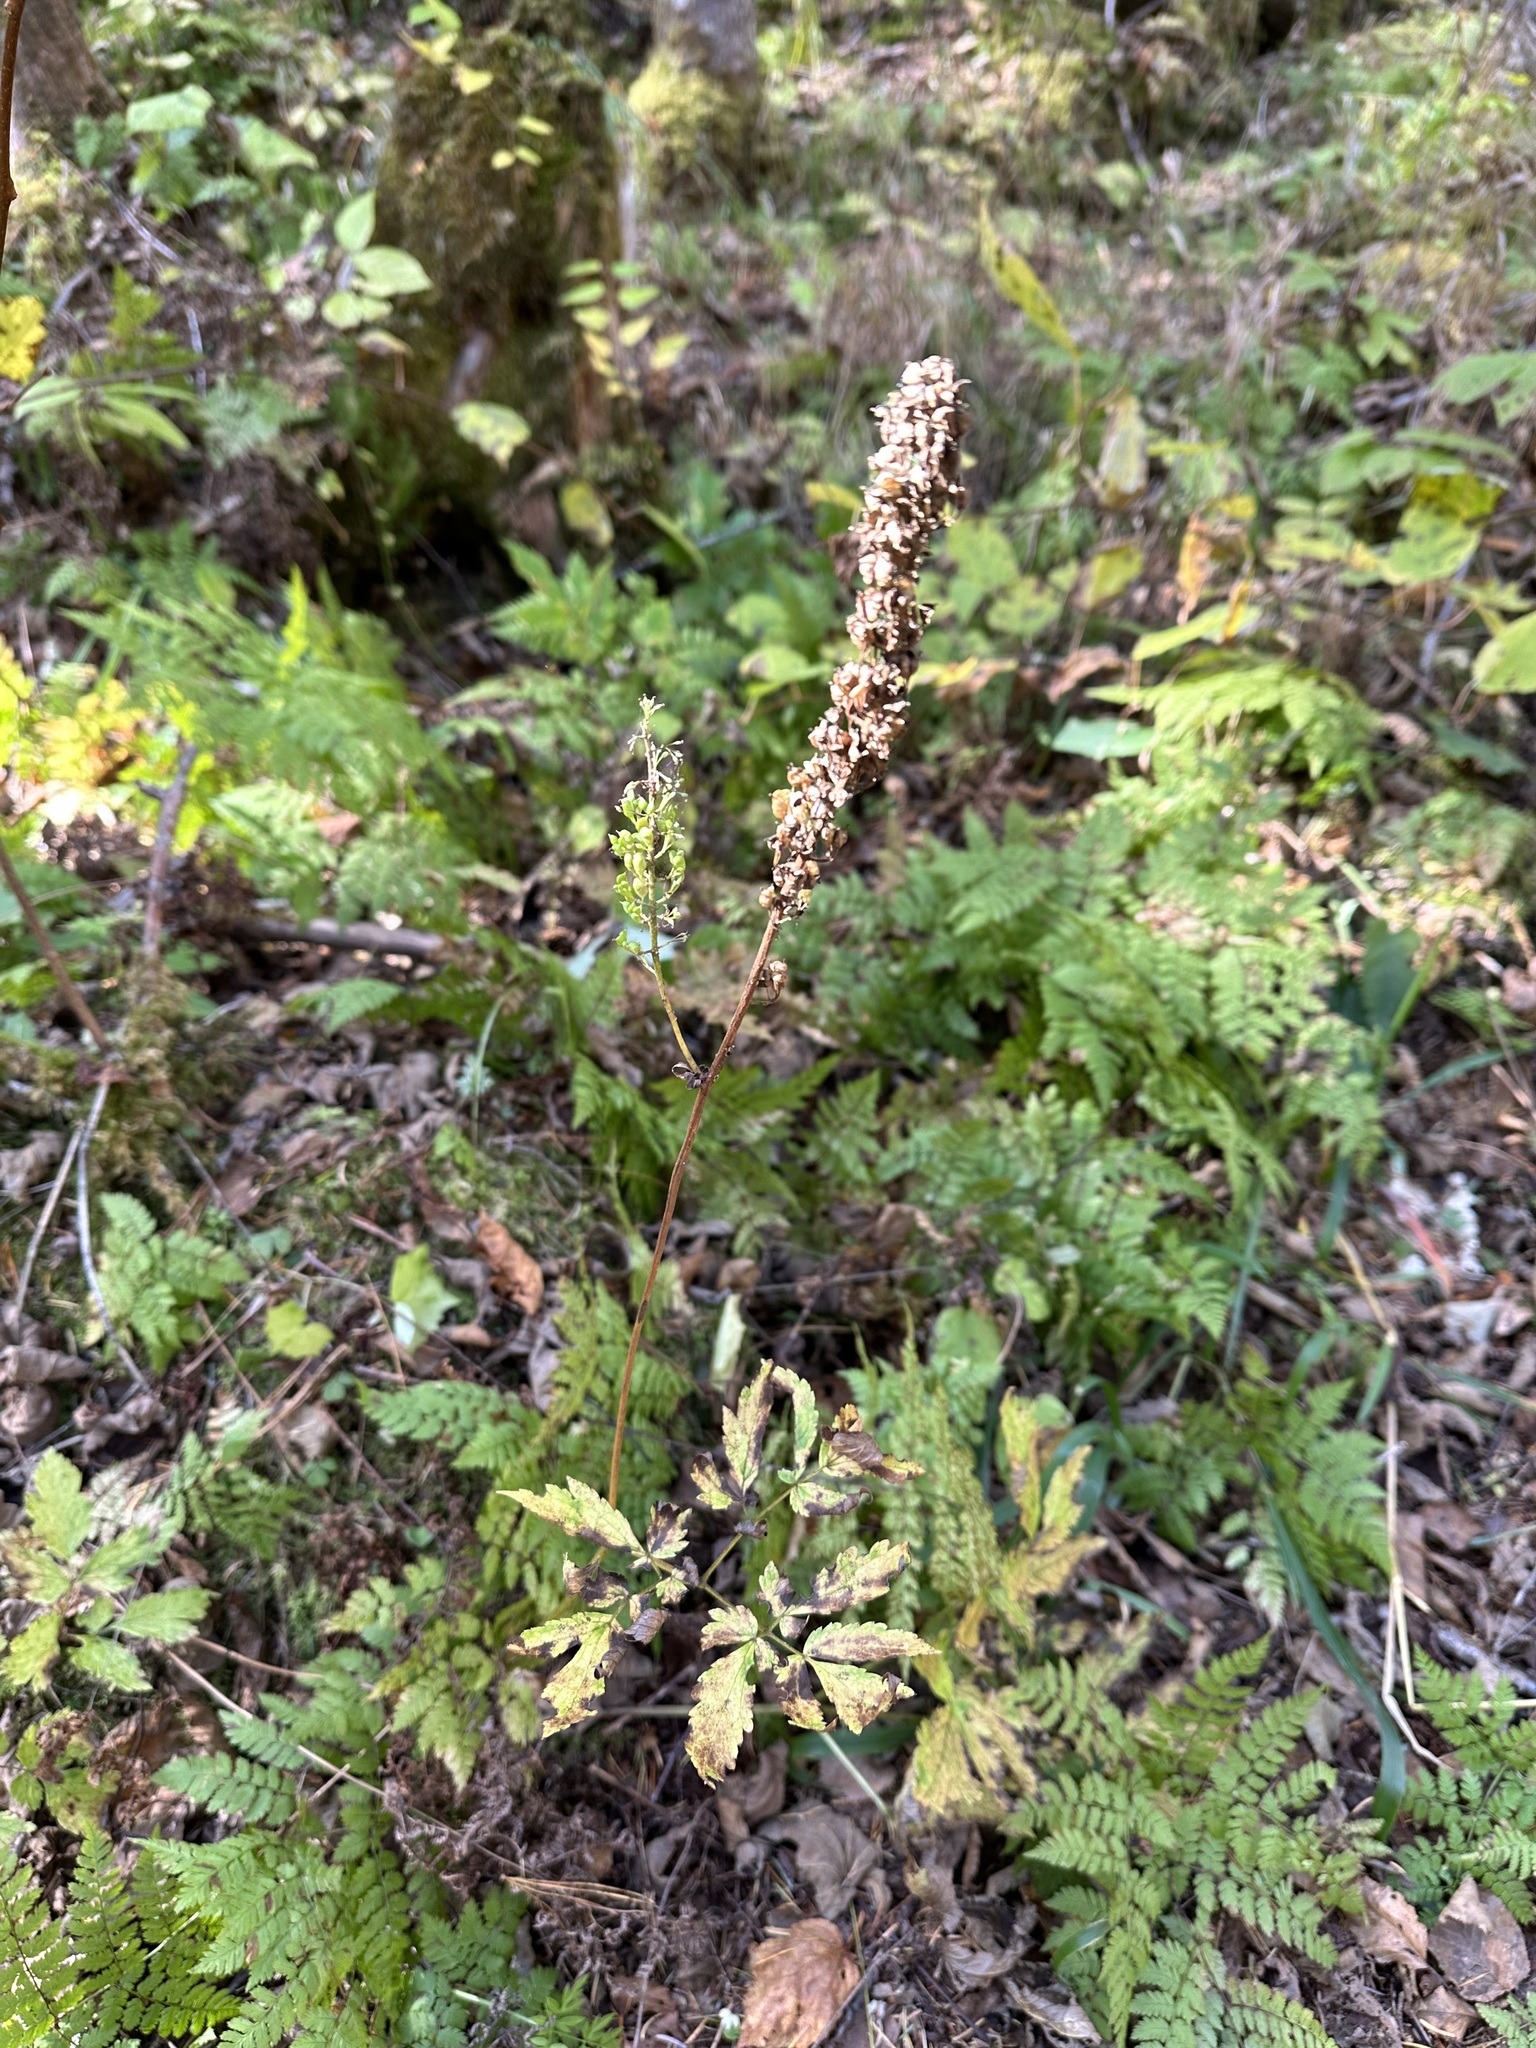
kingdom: Plantae
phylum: Tracheophyta
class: Magnoliopsida
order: Ranunculales
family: Ranunculaceae
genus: Actaea
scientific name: Actaea simplex
